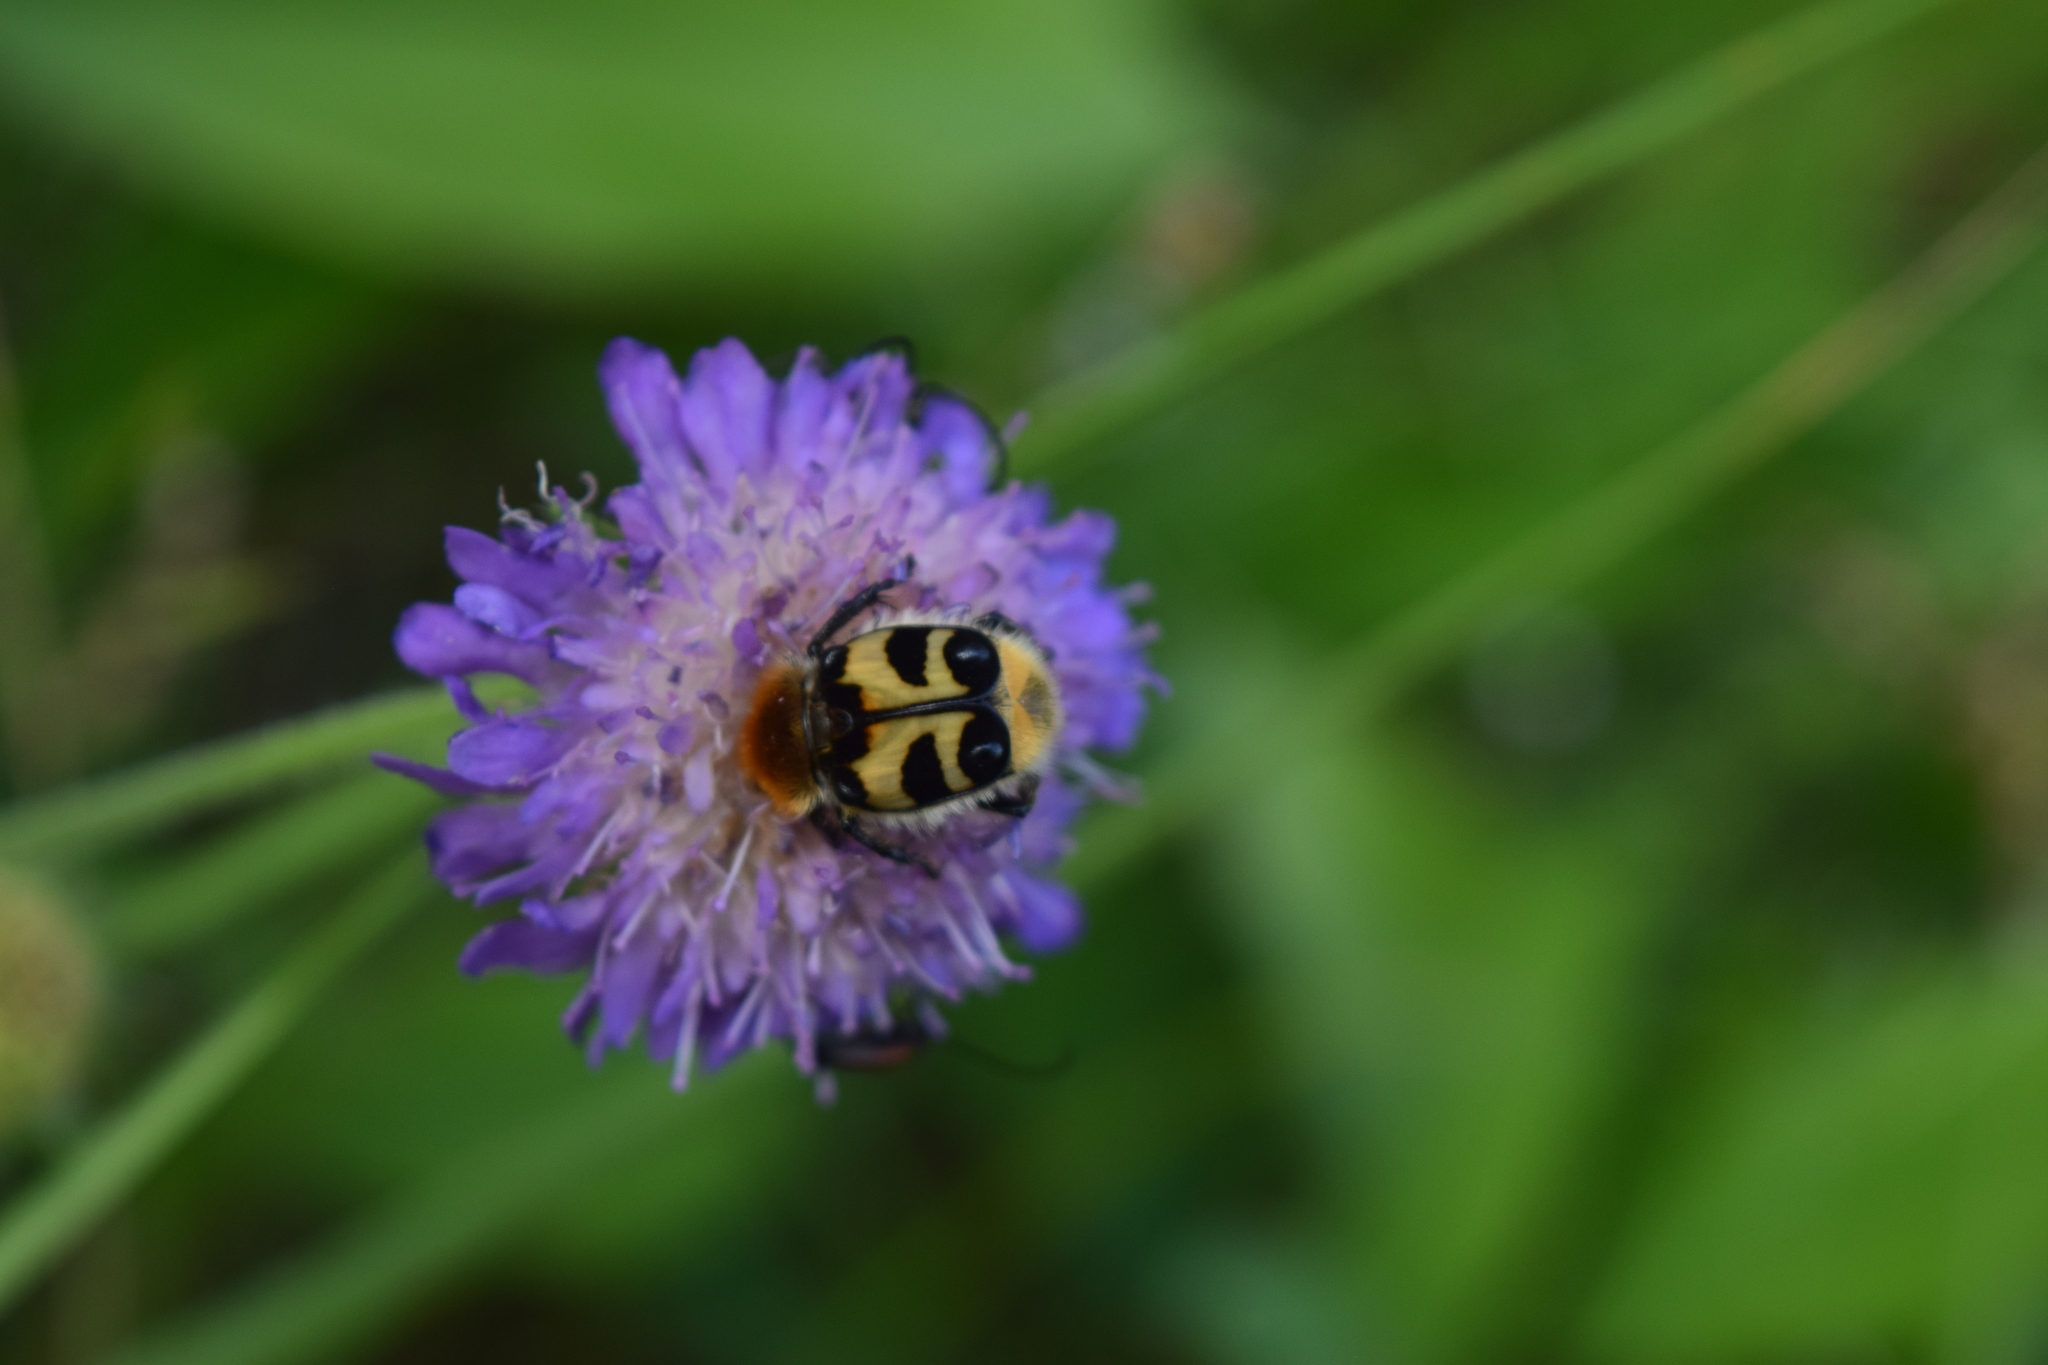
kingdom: Animalia
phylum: Arthropoda
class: Insecta
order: Coleoptera
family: Scarabaeidae
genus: Trichius
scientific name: Trichius fasciatus
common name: Bee beetle
